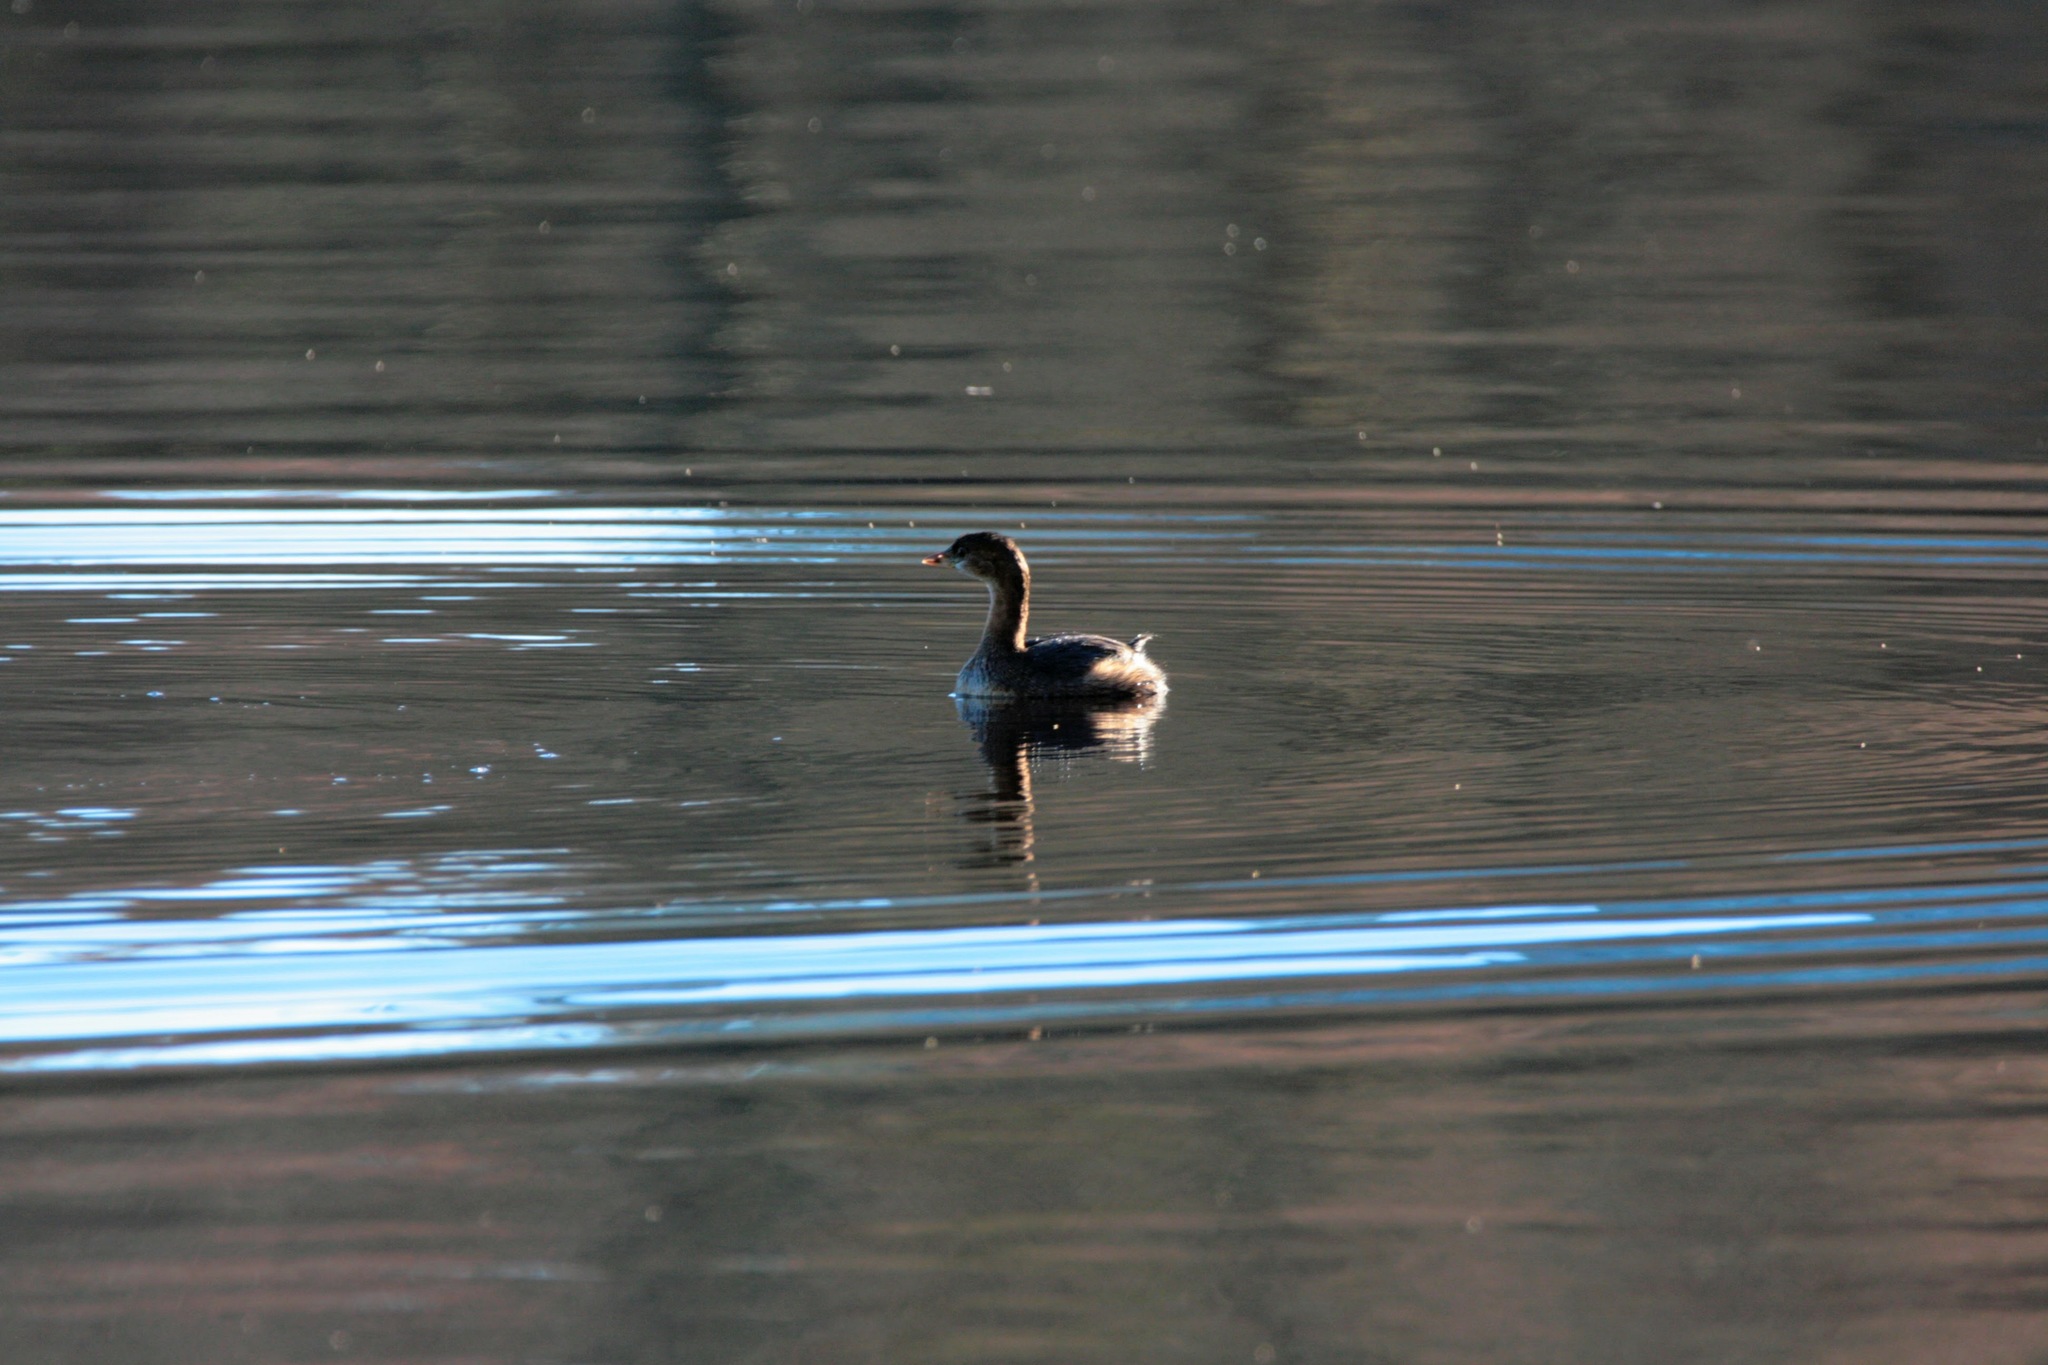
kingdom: Animalia
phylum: Chordata
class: Aves
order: Podicipediformes
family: Podicipedidae
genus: Podilymbus
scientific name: Podilymbus podiceps
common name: Pied-billed grebe
